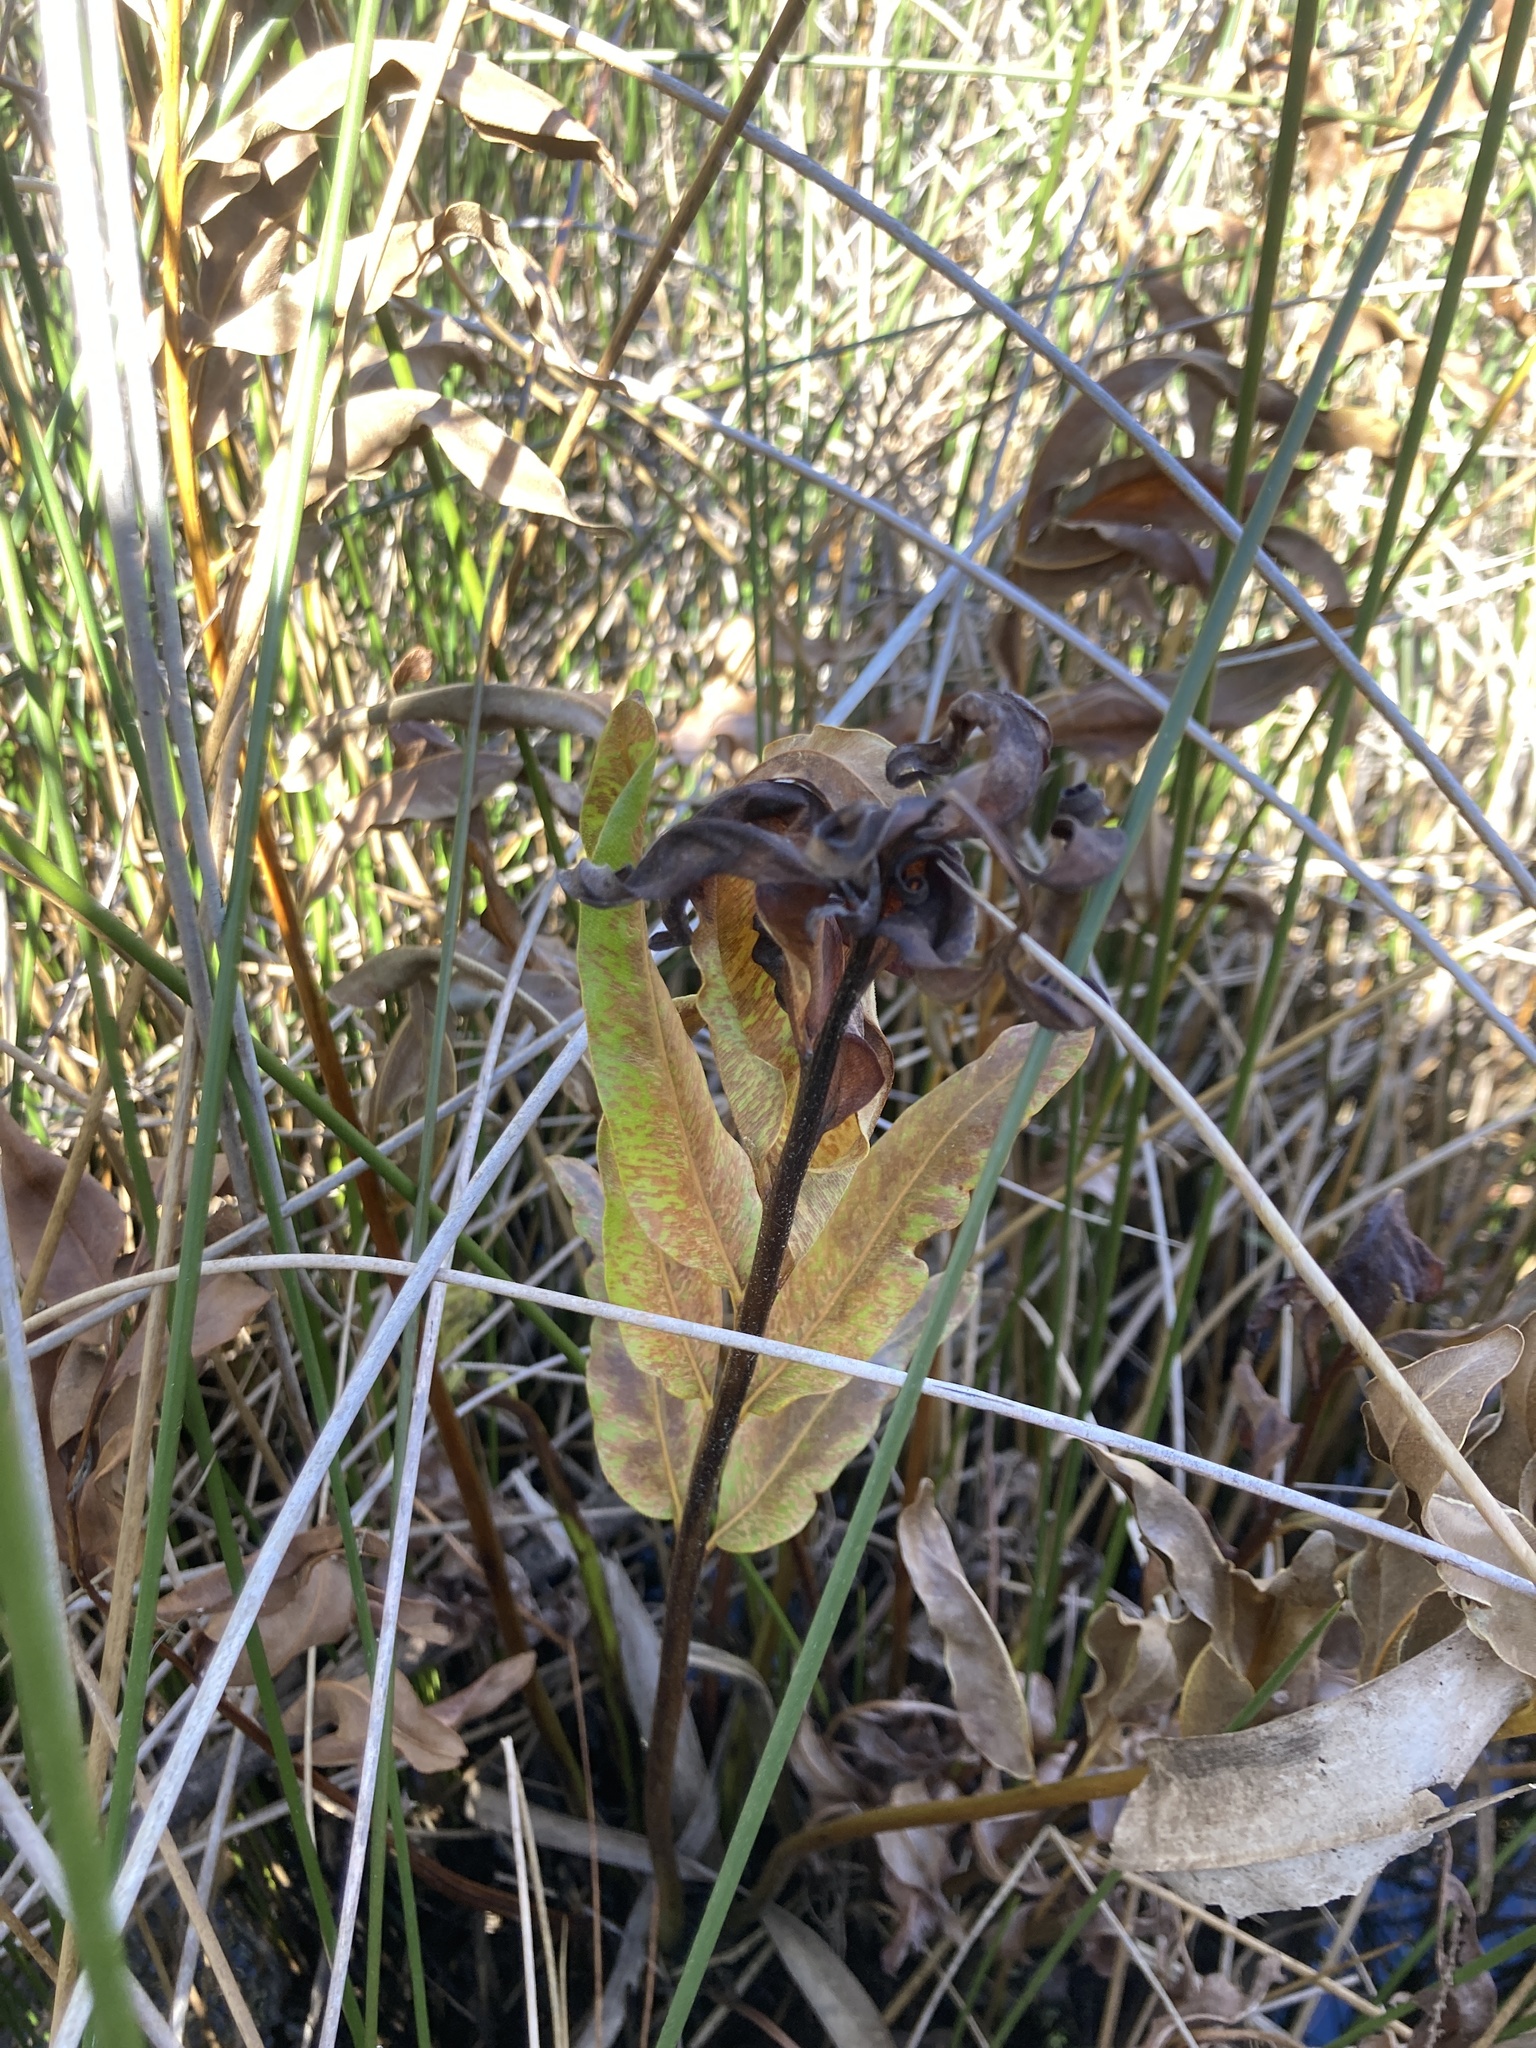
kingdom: Plantae
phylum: Tracheophyta
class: Polypodiopsida
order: Polypodiales
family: Pteridaceae
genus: Acrostichum
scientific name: Acrostichum danaeifolium
